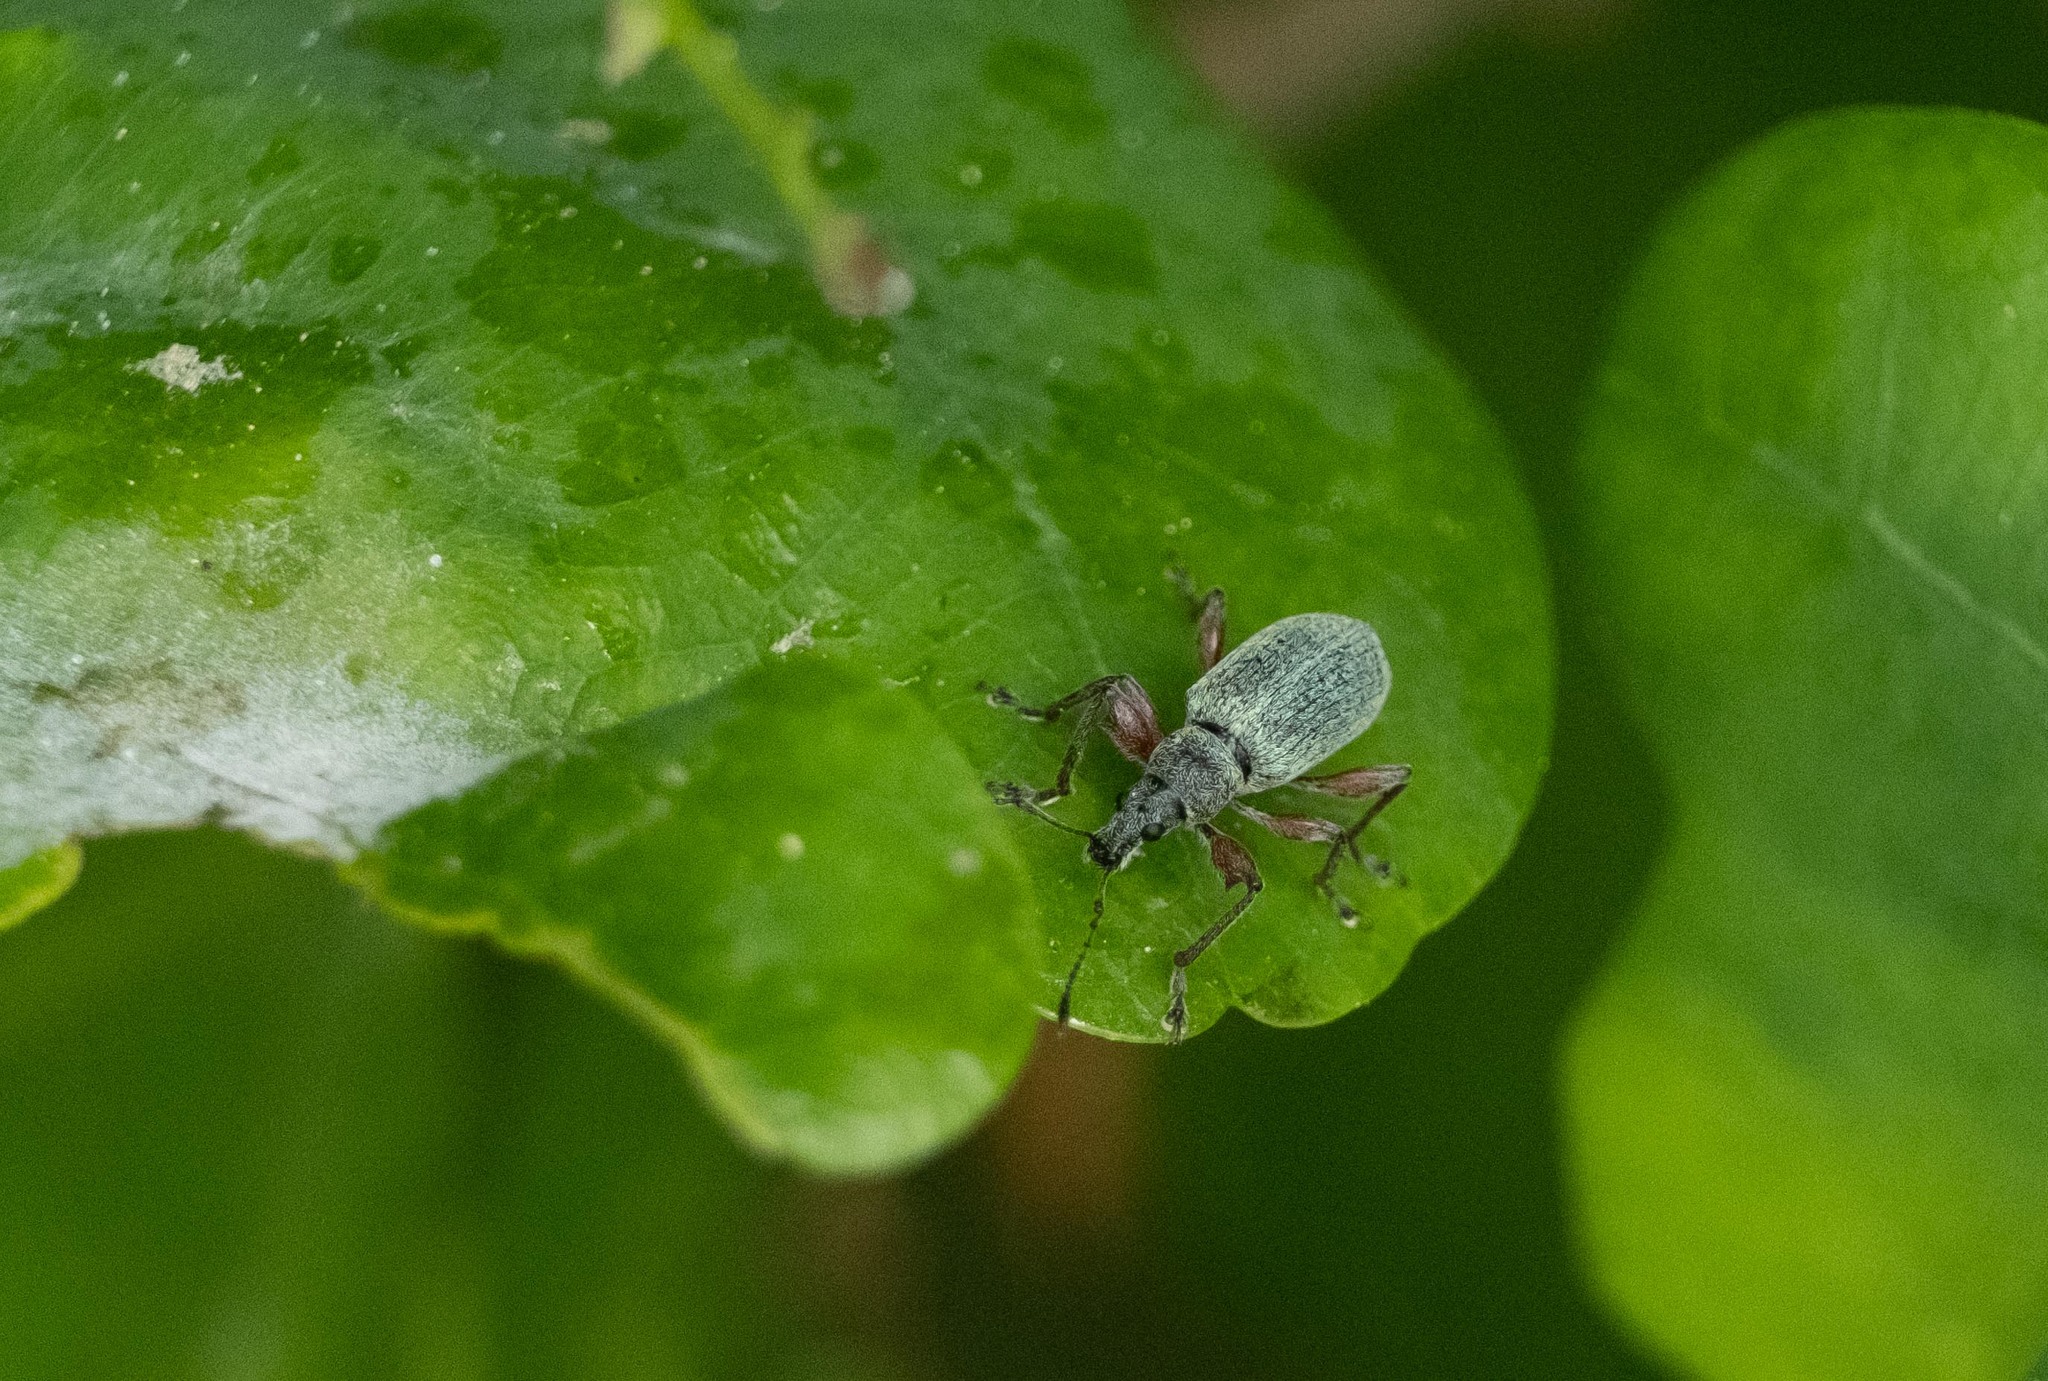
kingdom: Animalia
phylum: Arthropoda
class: Insecta
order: Coleoptera
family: Curculionidae
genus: Phyllobius
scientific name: Phyllobius pomaceus
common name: Green nettle weevil
